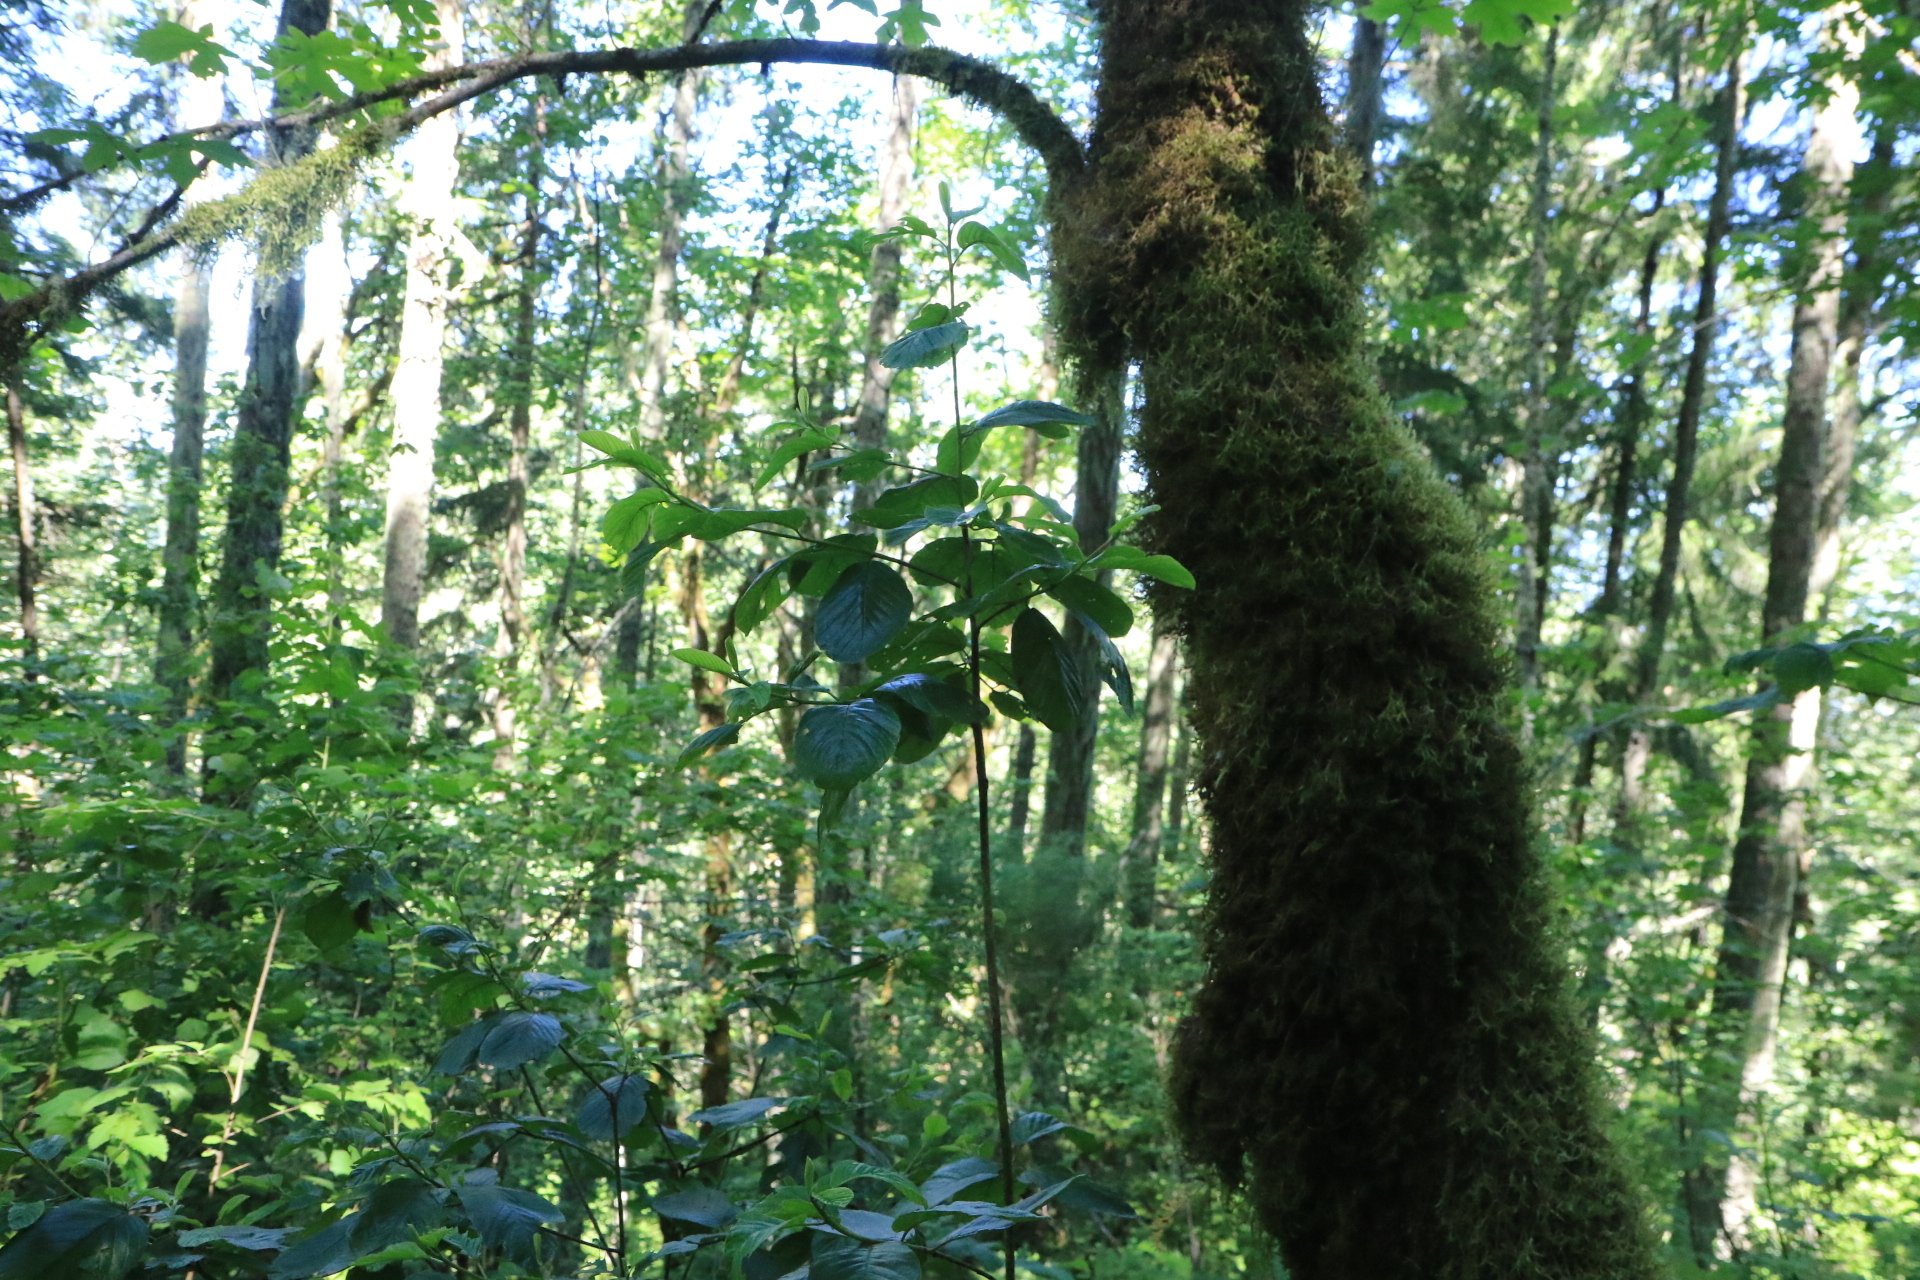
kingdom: Plantae
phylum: Tracheophyta
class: Magnoliopsida
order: Rosales
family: Rhamnaceae
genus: Frangula
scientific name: Frangula purshiana
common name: Cascara buckthorn
